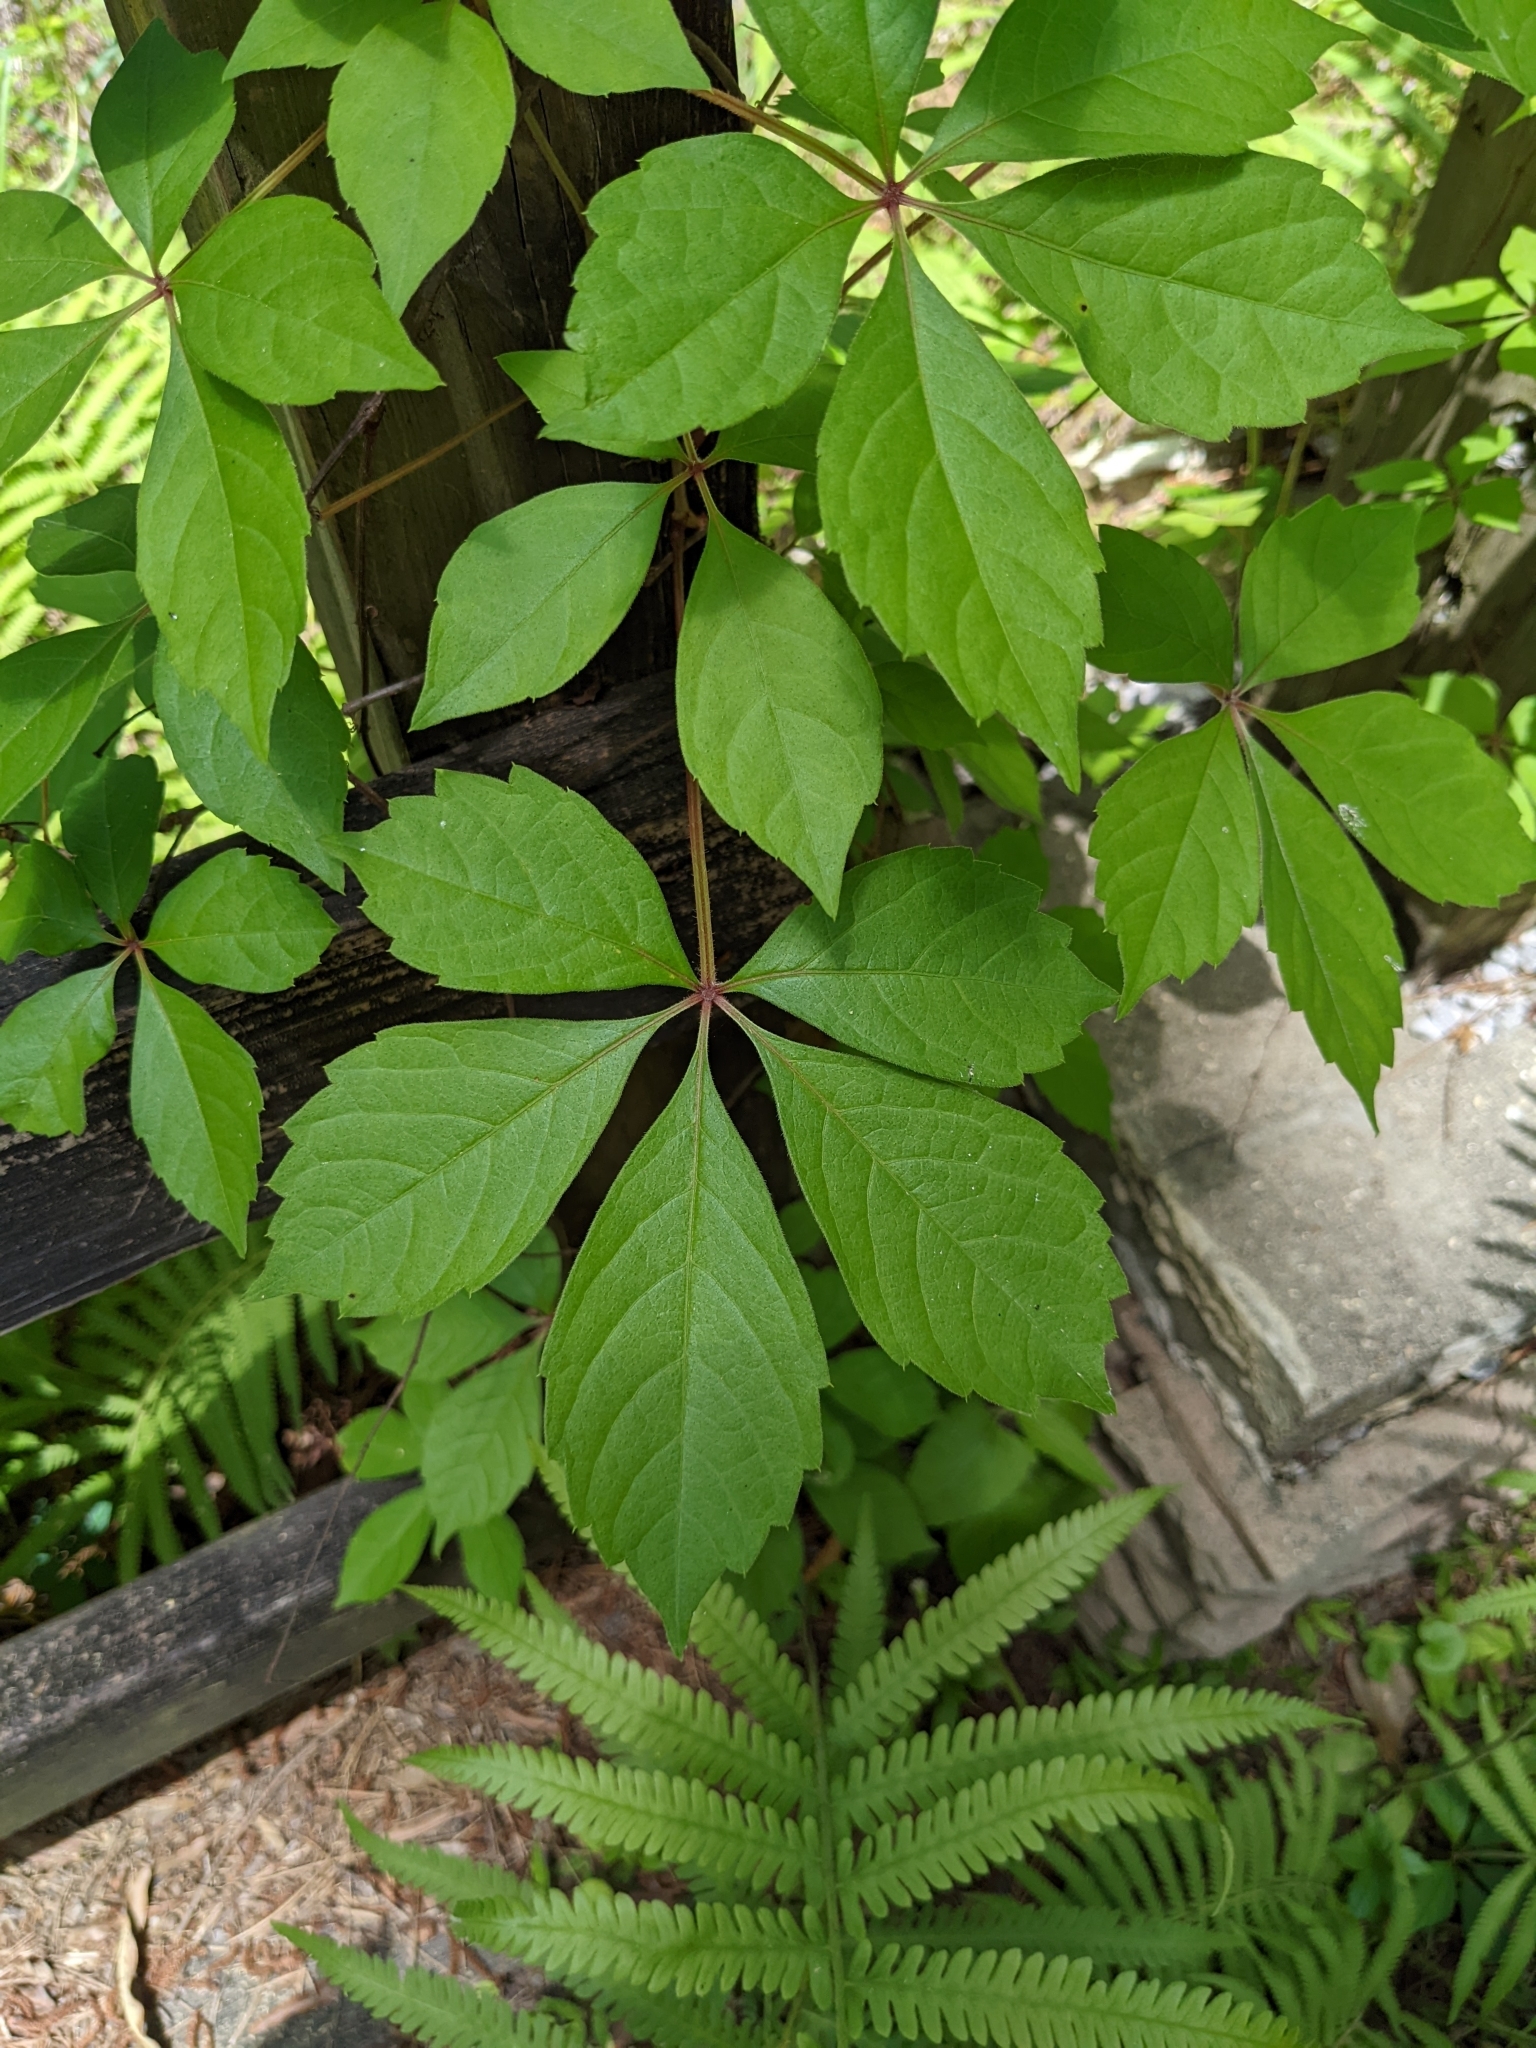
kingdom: Plantae
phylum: Tracheophyta
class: Magnoliopsida
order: Vitales
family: Vitaceae
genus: Parthenocissus
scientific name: Parthenocissus quinquefolia
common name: Virginia-creeper
